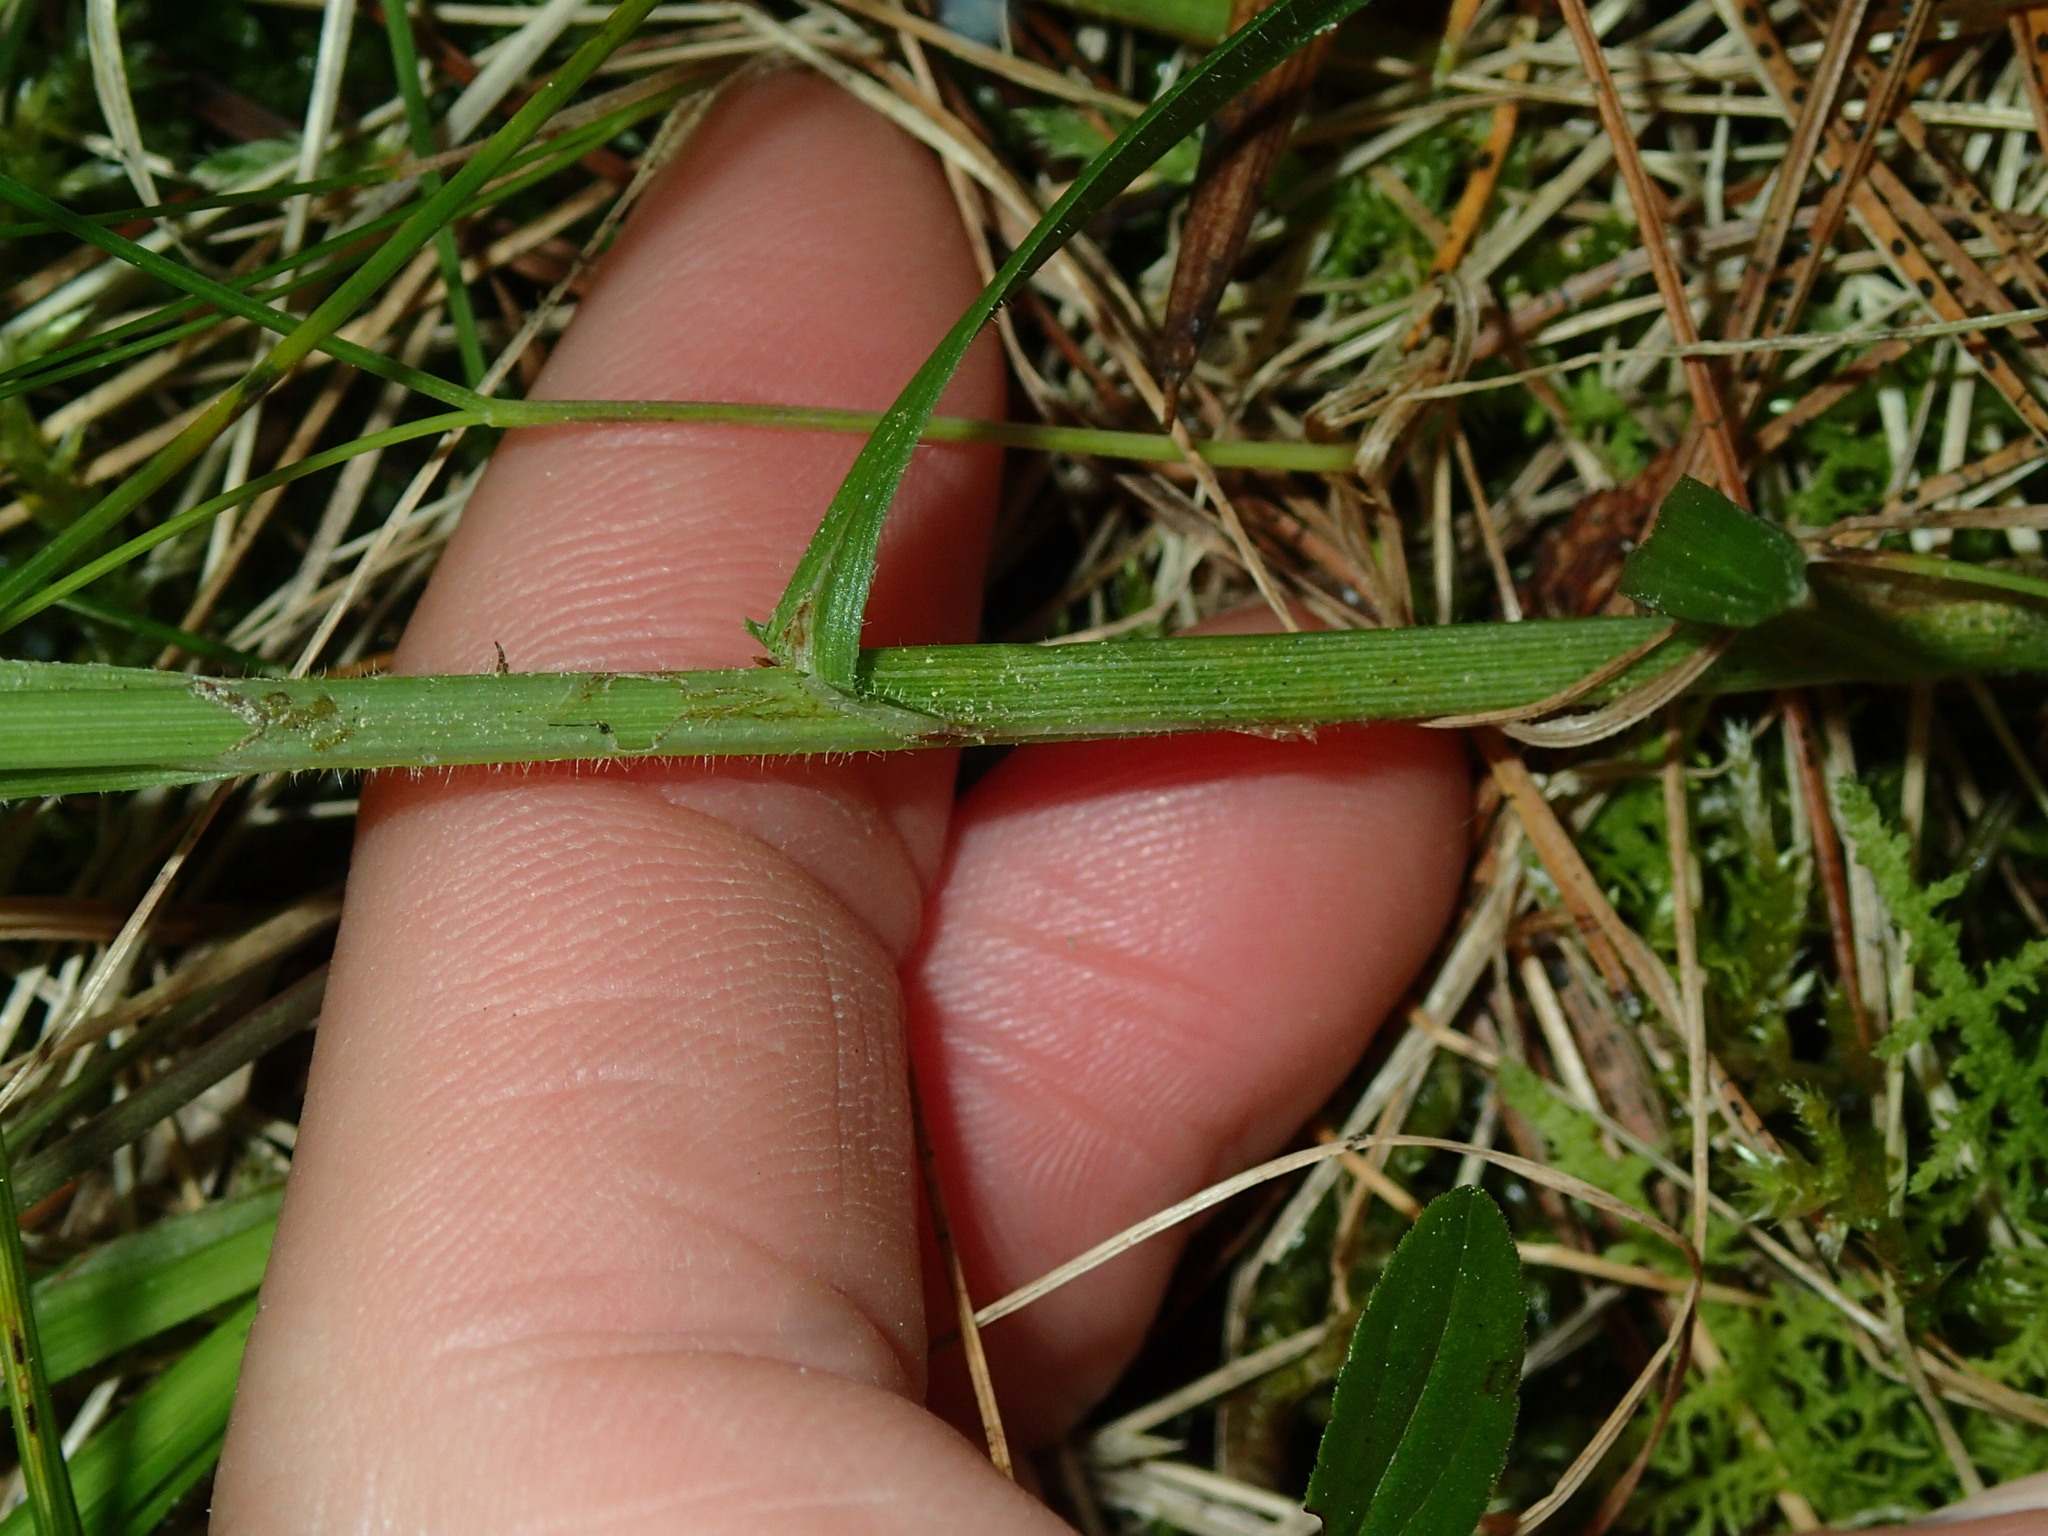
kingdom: Plantae
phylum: Tracheophyta
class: Liliopsida
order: Poales
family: Cyperaceae
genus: Carex
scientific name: Carex pallescens
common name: Pale sedge
